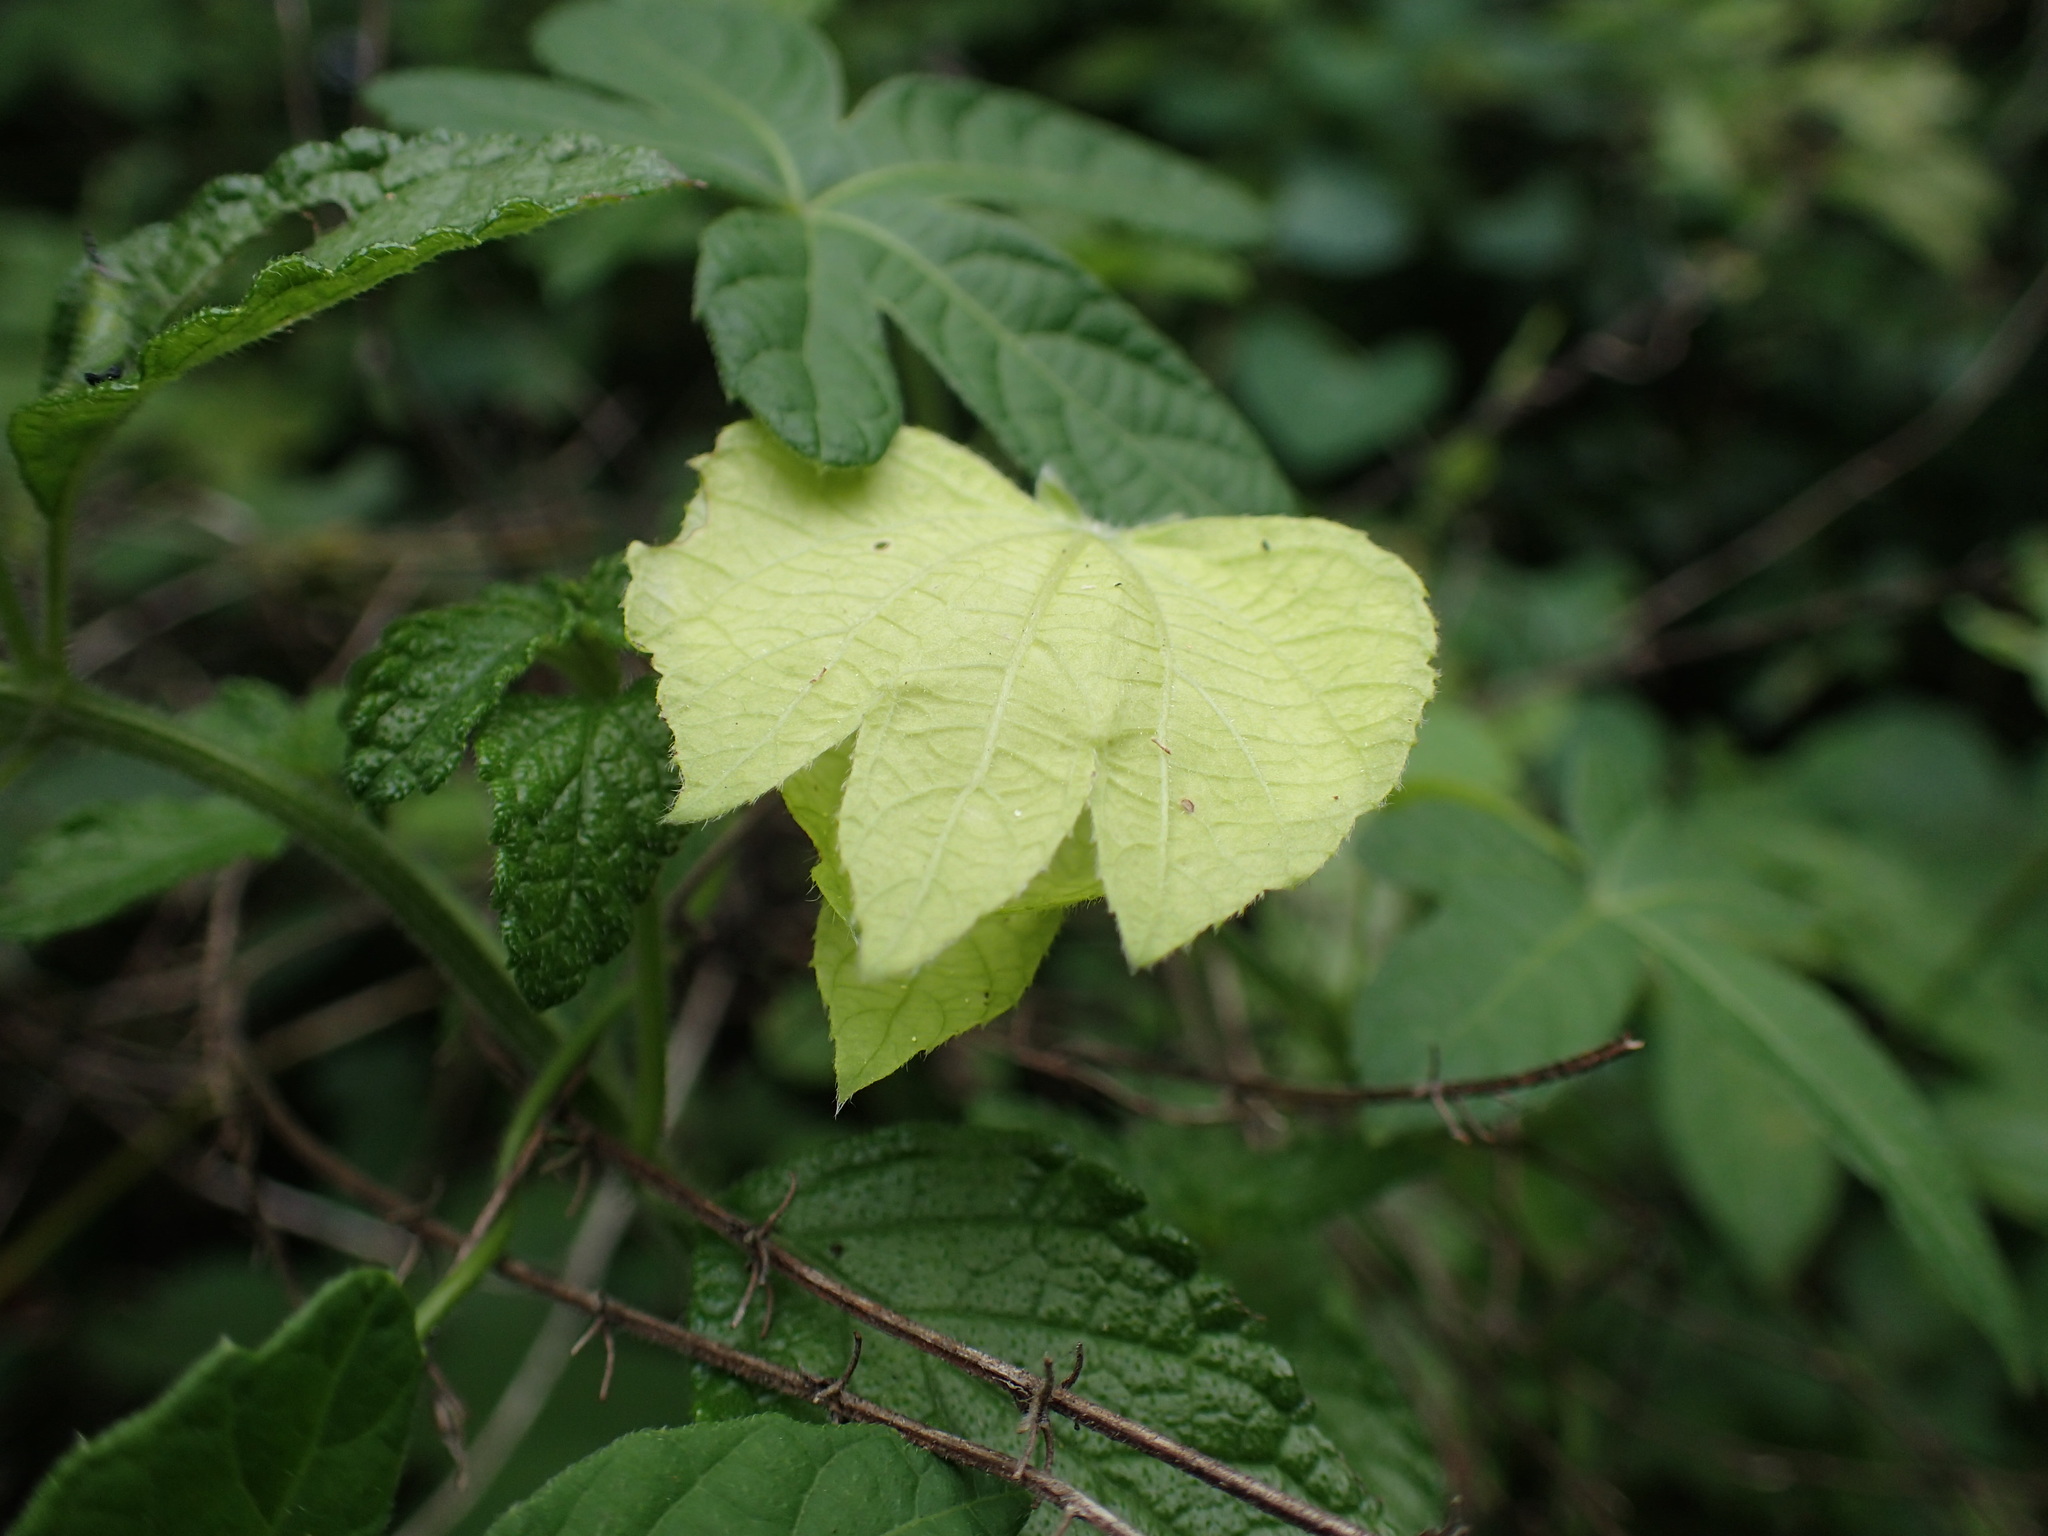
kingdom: Plantae
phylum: Tracheophyta
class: Magnoliopsida
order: Malpighiales
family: Euphorbiaceae
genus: Dalechampia
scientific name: Dalechampia capensis
